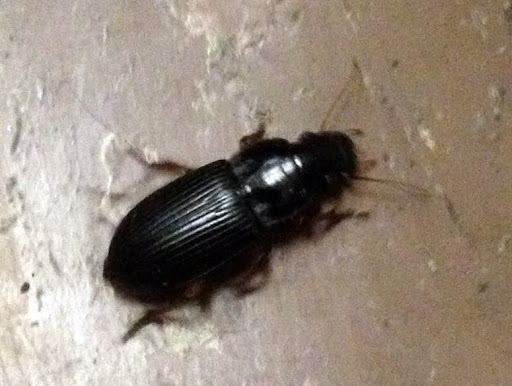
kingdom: Animalia
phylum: Arthropoda
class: Insecta
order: Coleoptera
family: Carabidae
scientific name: Carabidae
